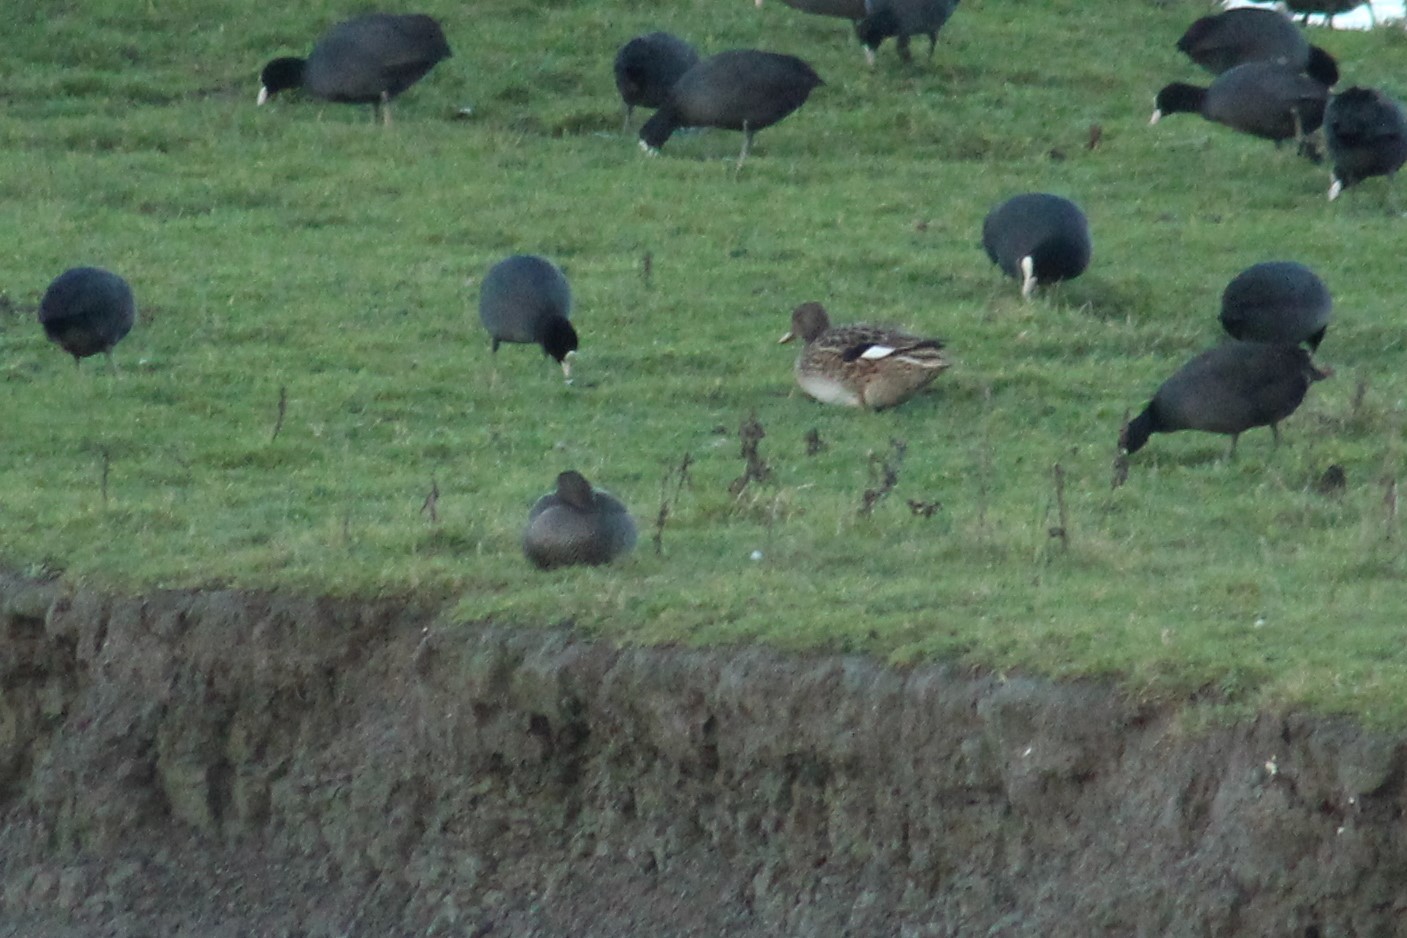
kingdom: Animalia
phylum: Chordata
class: Aves
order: Anseriformes
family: Anatidae
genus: Mareca
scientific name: Mareca strepera
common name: Gadwall
